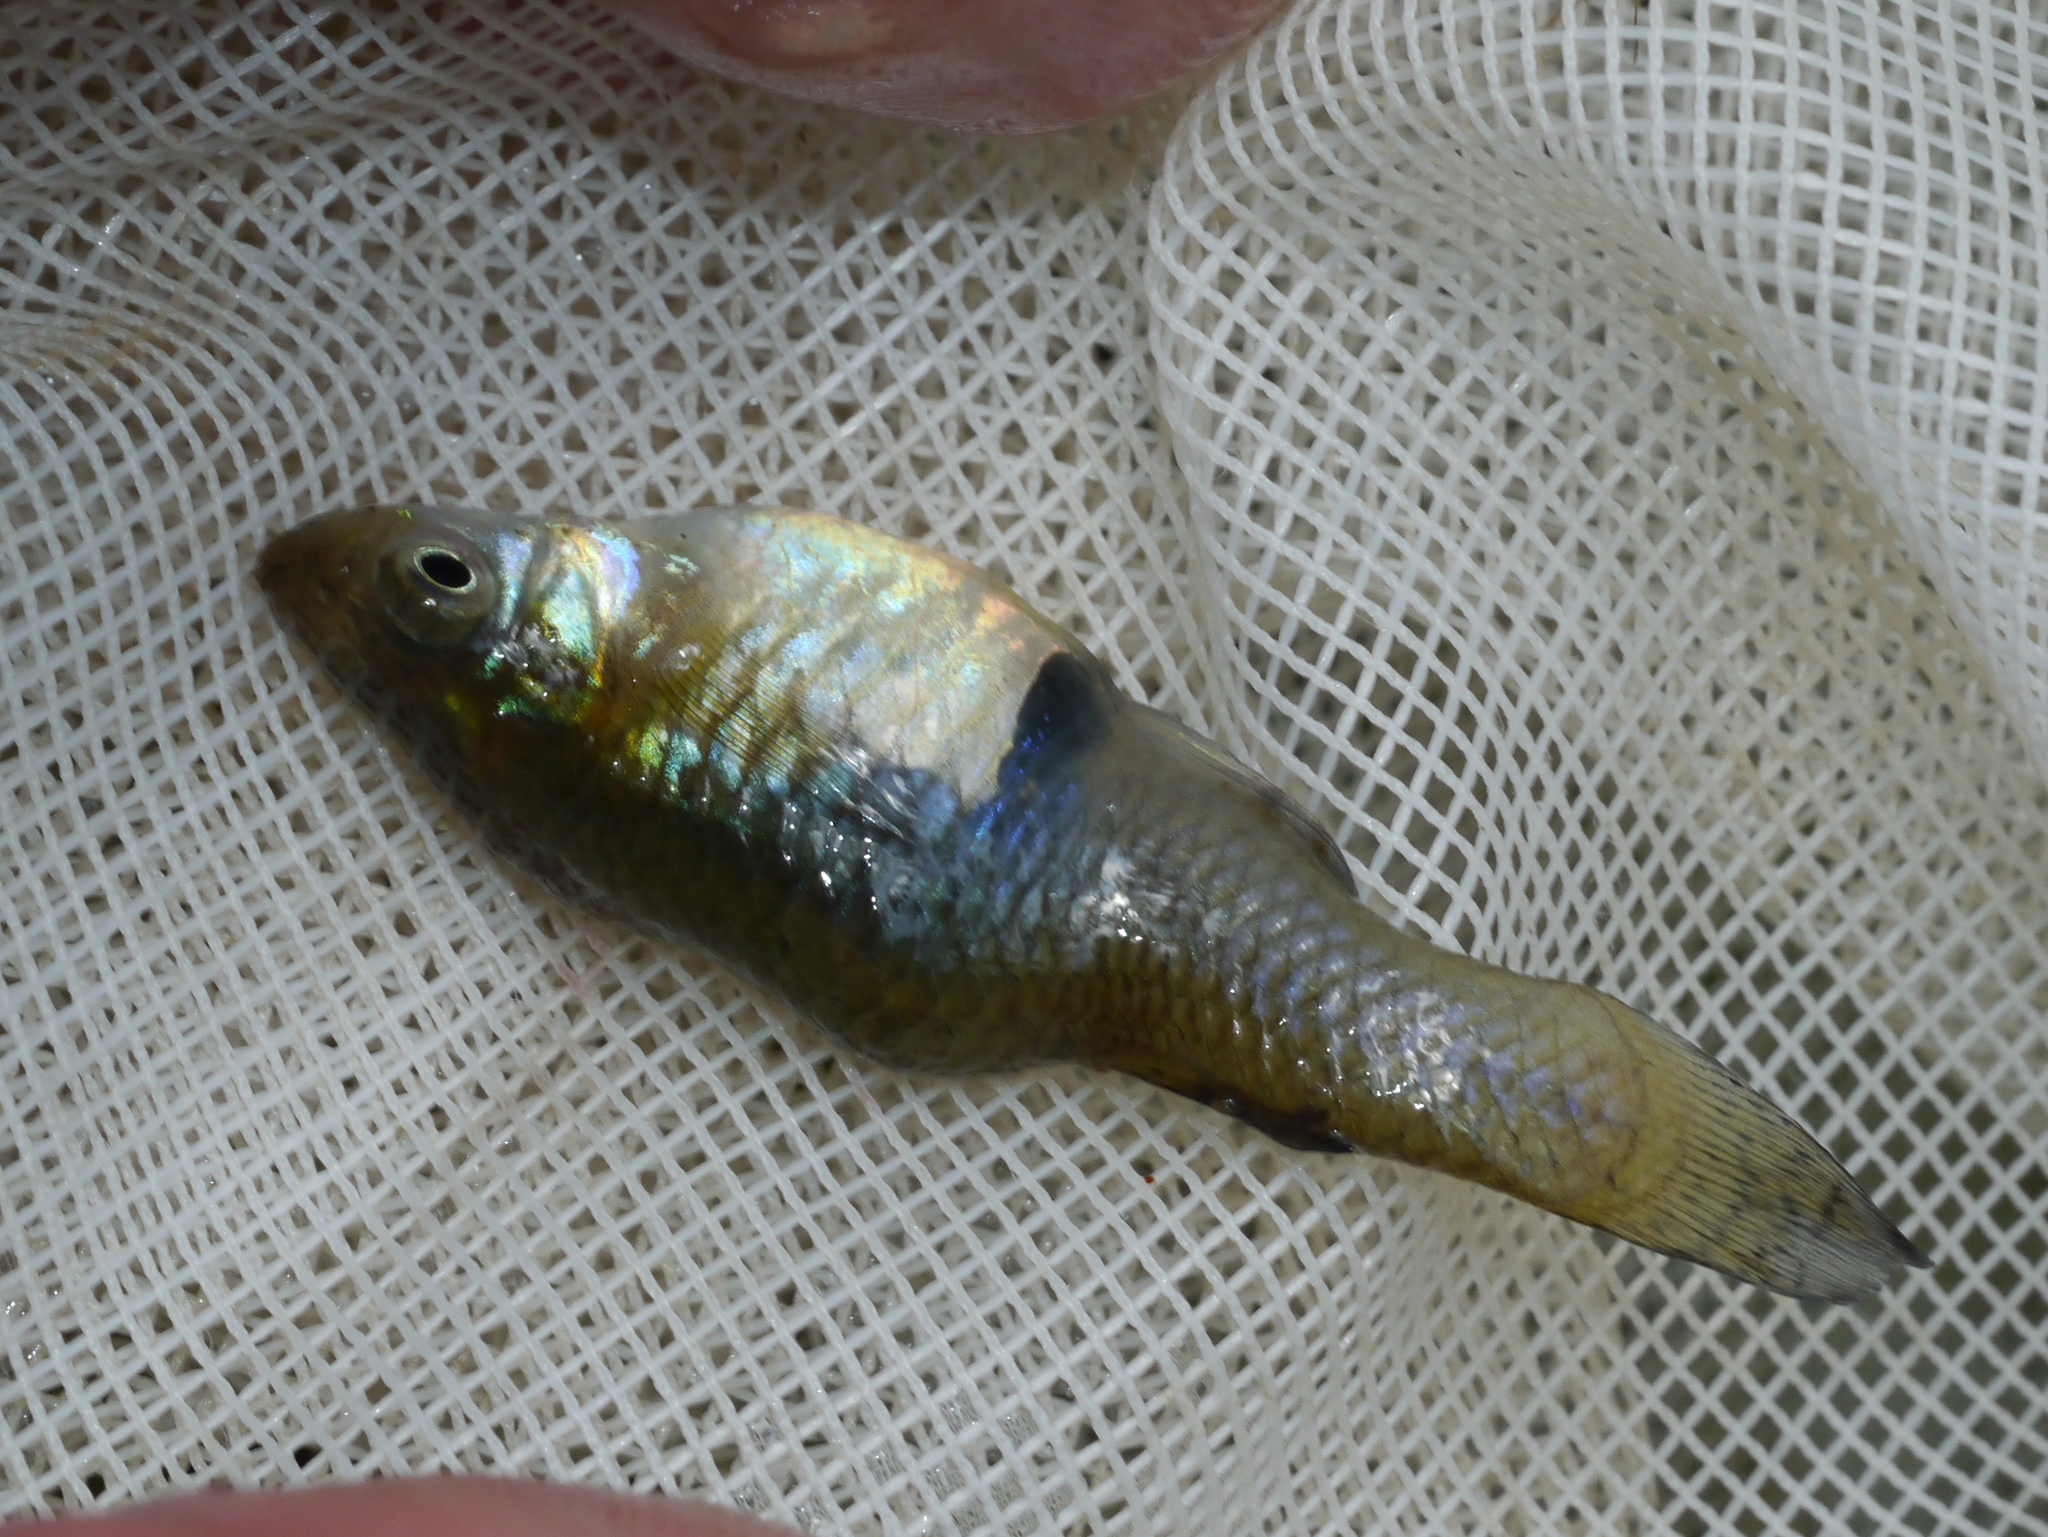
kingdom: Animalia
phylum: Chordata
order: Cyprinodontiformes
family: Poeciliidae
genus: Gambusia
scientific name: Gambusia holbrooki
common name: Eastern mosquitofish
